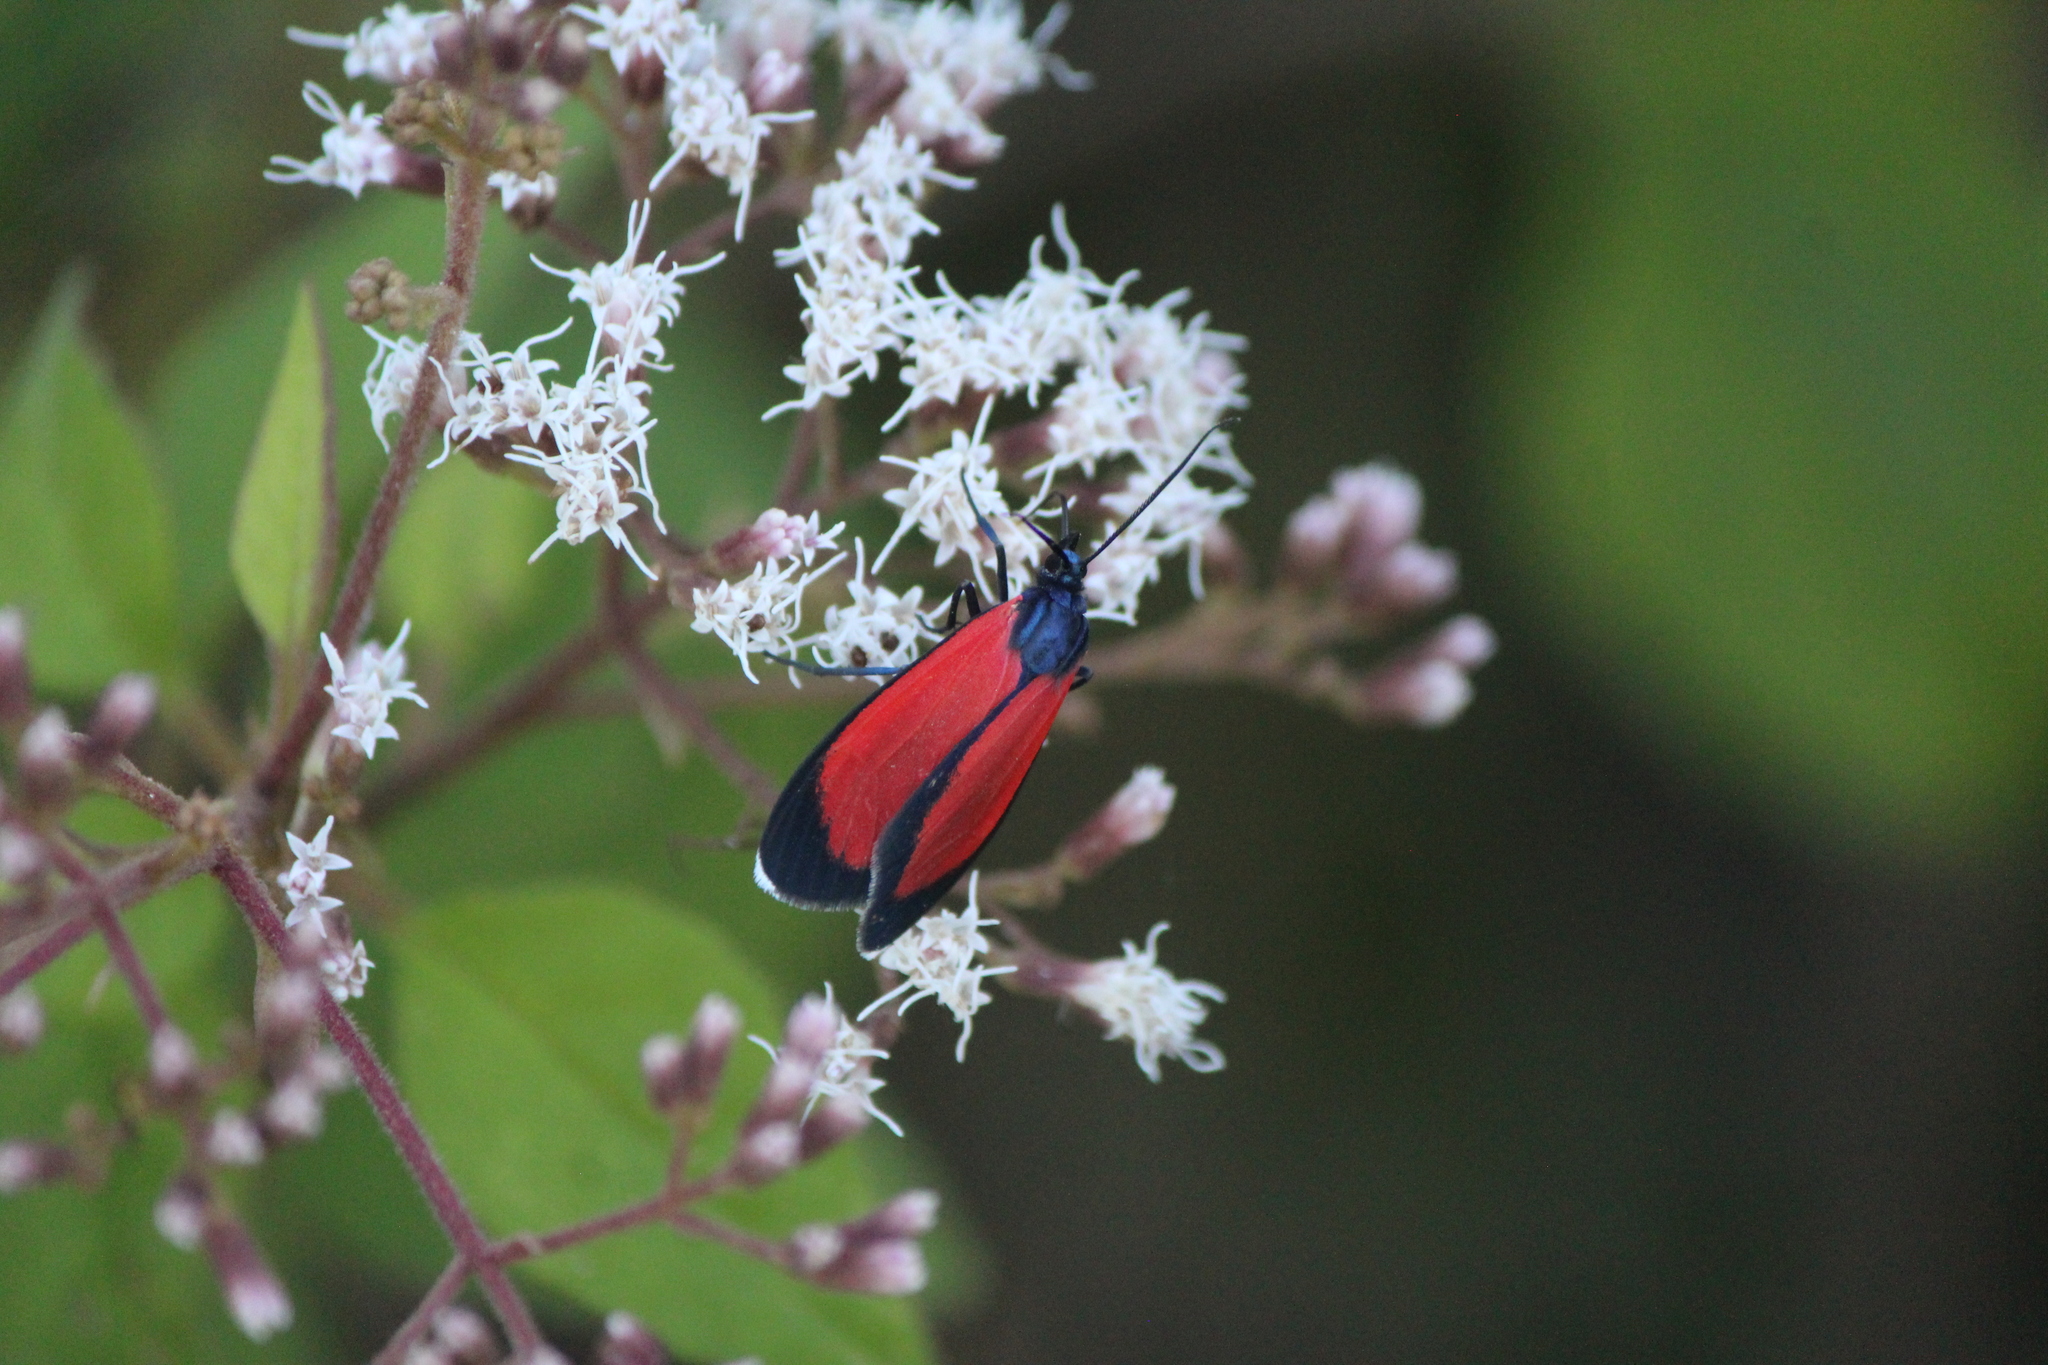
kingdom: Animalia
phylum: Arthropoda
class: Insecta
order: Lepidoptera
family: Erebidae
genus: Cyanopepla
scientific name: Cyanopepla griseldis
